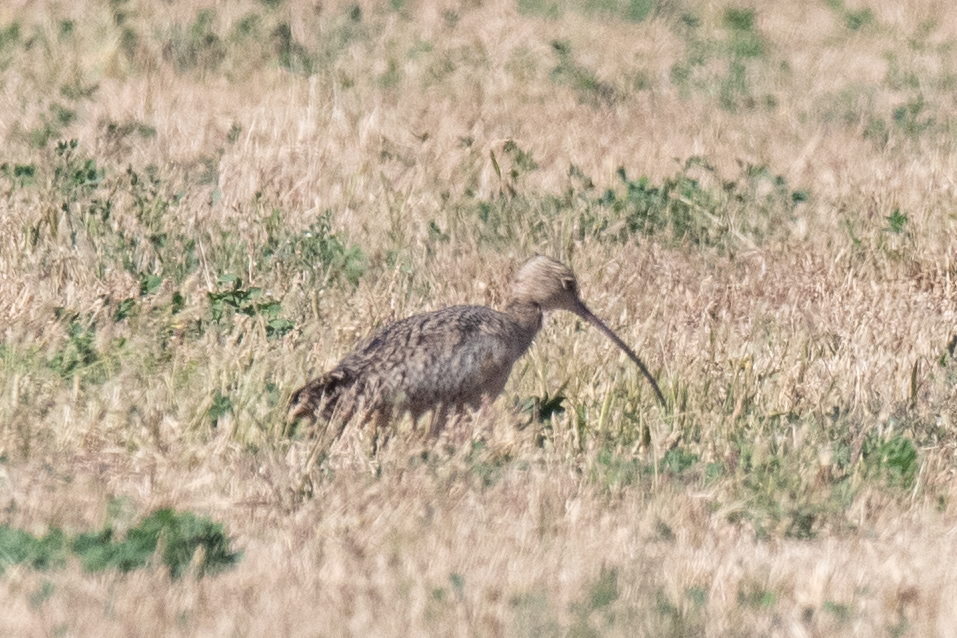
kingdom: Animalia
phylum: Chordata
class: Aves
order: Charadriiformes
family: Scolopacidae
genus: Numenius
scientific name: Numenius americanus
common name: Long-billed curlew
